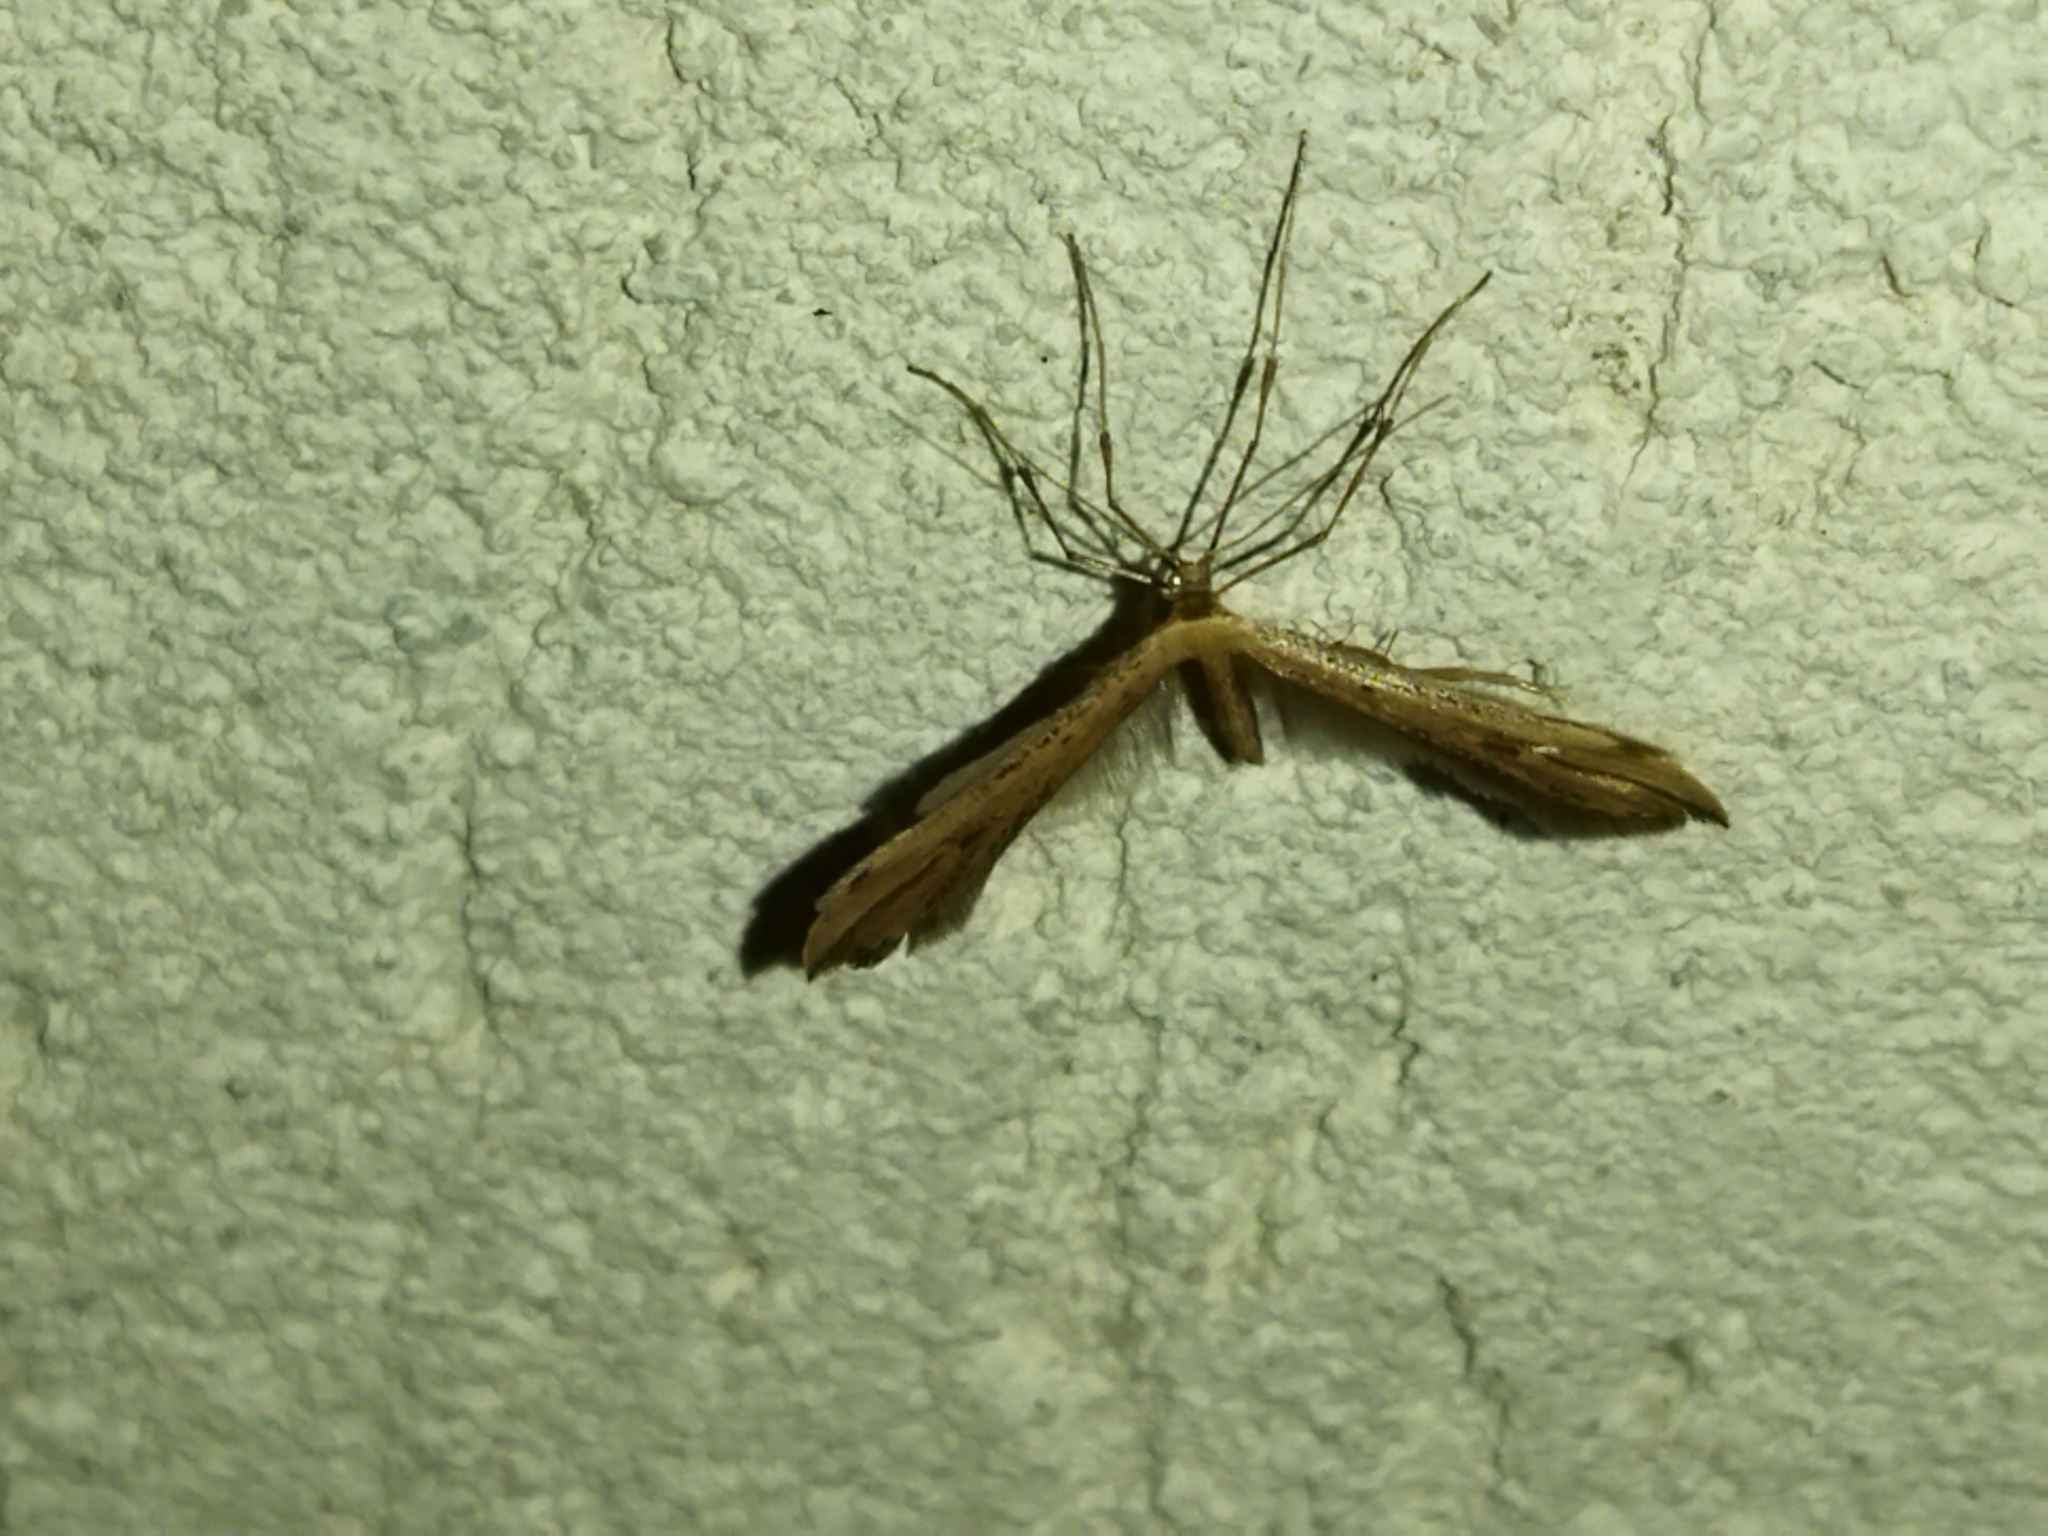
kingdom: Animalia
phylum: Arthropoda
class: Insecta
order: Lepidoptera
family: Pterophoridae
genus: Emmelina
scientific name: Emmelina monodactyla
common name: Common plume
